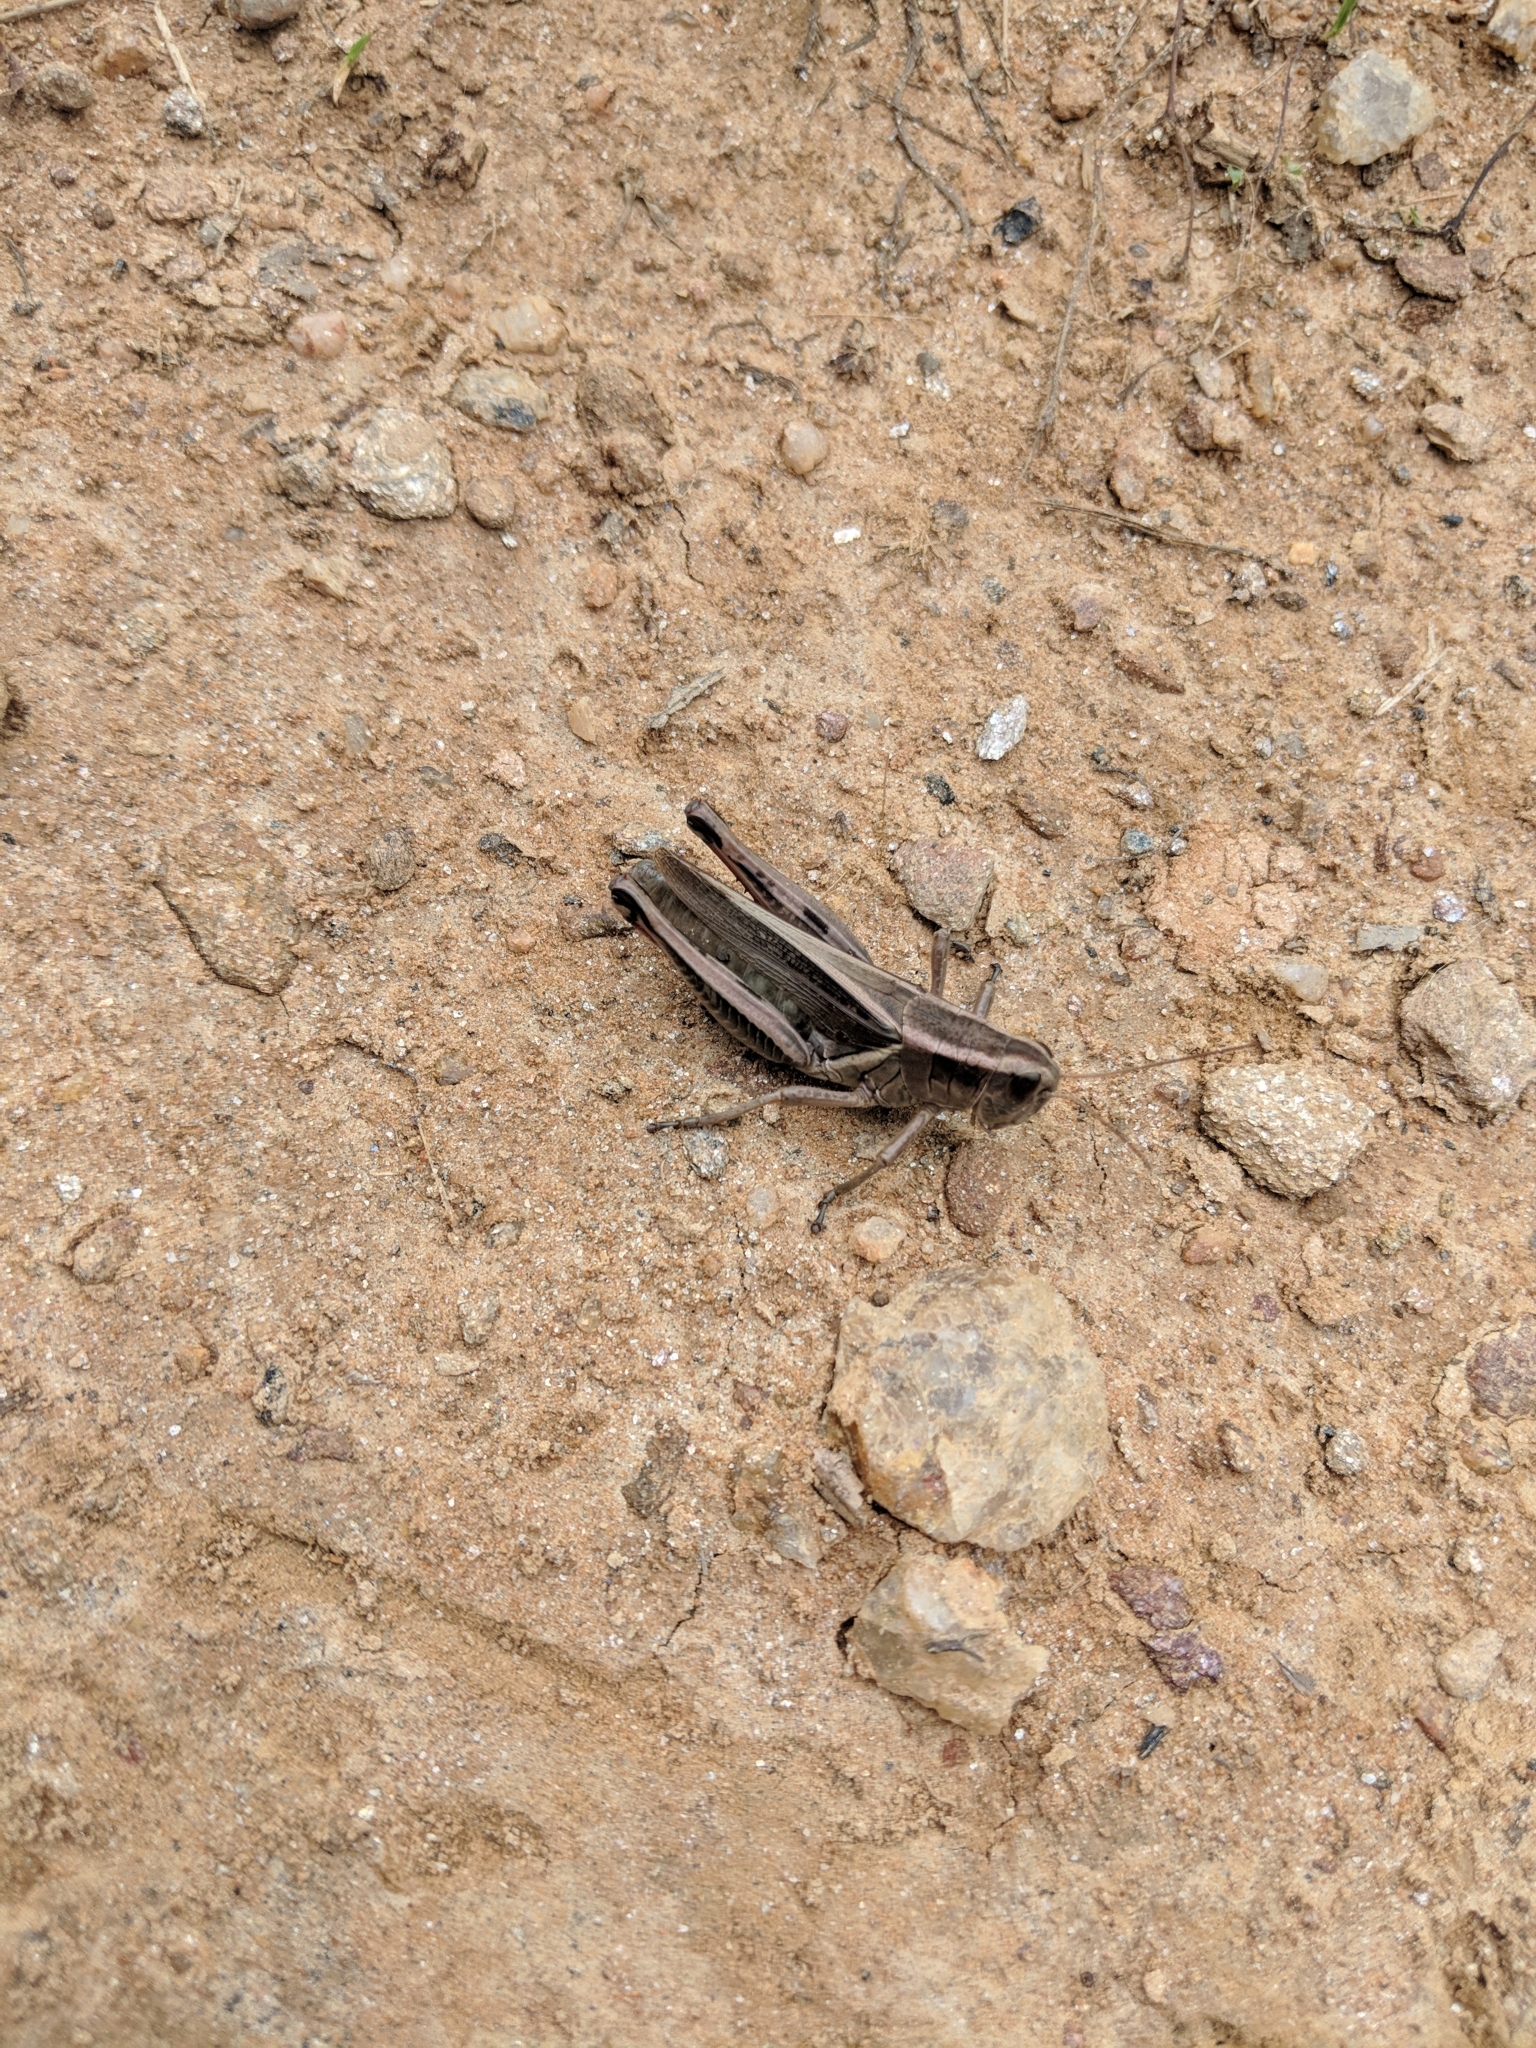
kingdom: Animalia
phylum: Arthropoda
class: Insecta
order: Orthoptera
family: Acrididae
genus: Melanoplus
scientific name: Melanoplus bivittatus
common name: Two-striped grasshopper
